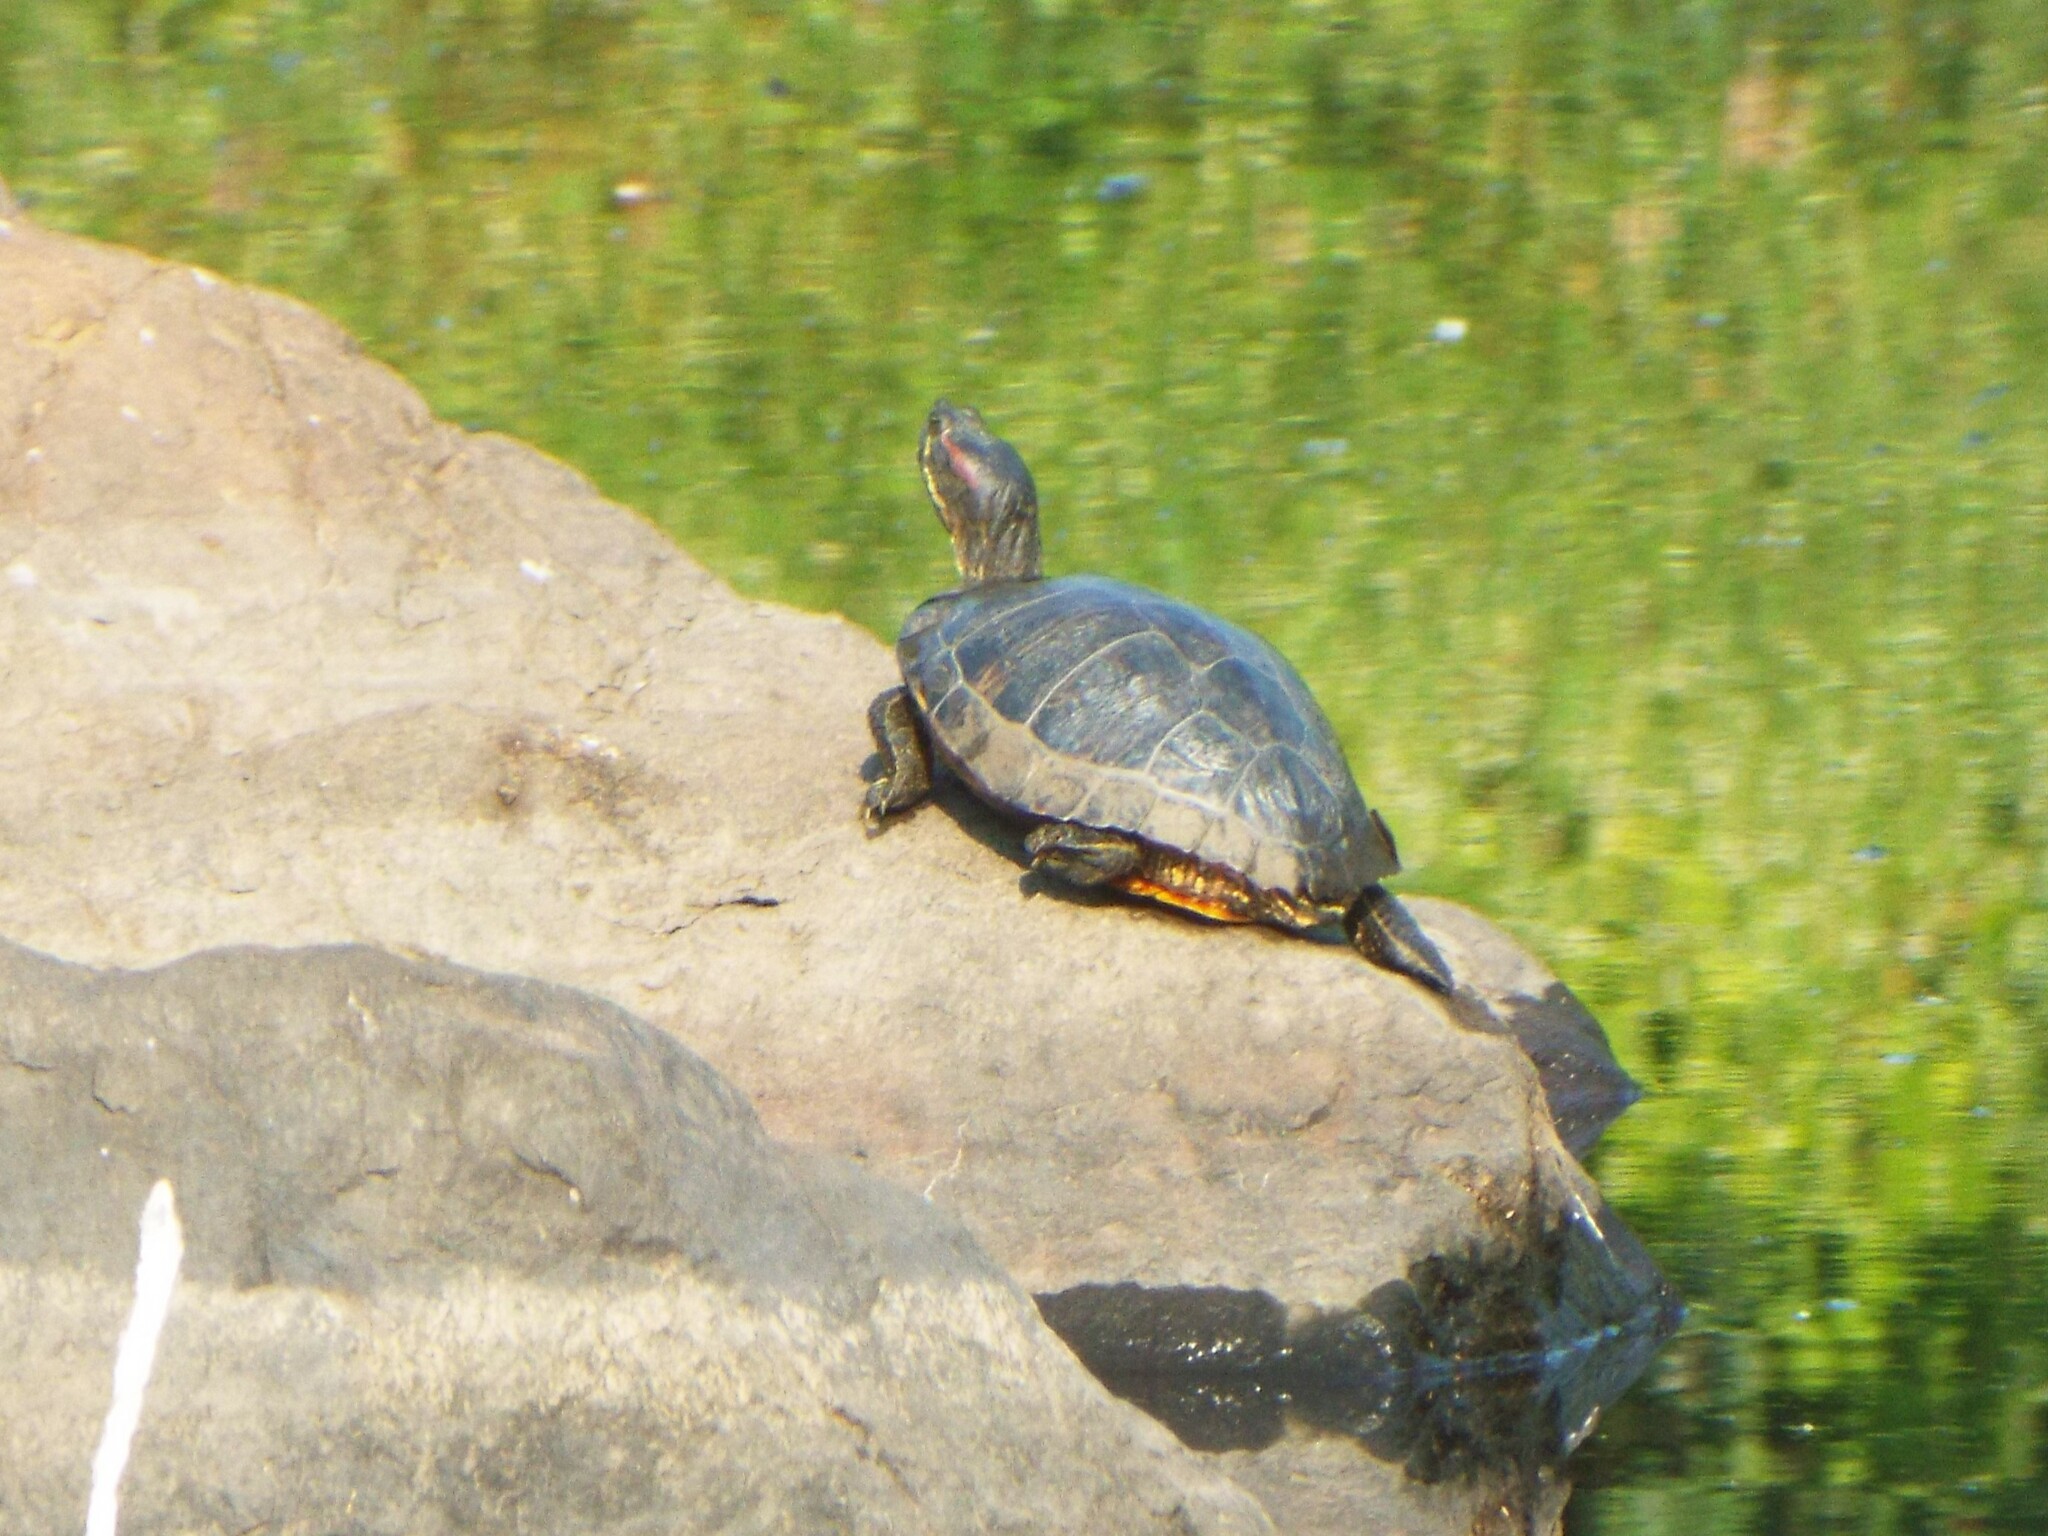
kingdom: Animalia
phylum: Chordata
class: Testudines
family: Emydidae
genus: Trachemys
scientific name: Trachemys scripta
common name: Slider
